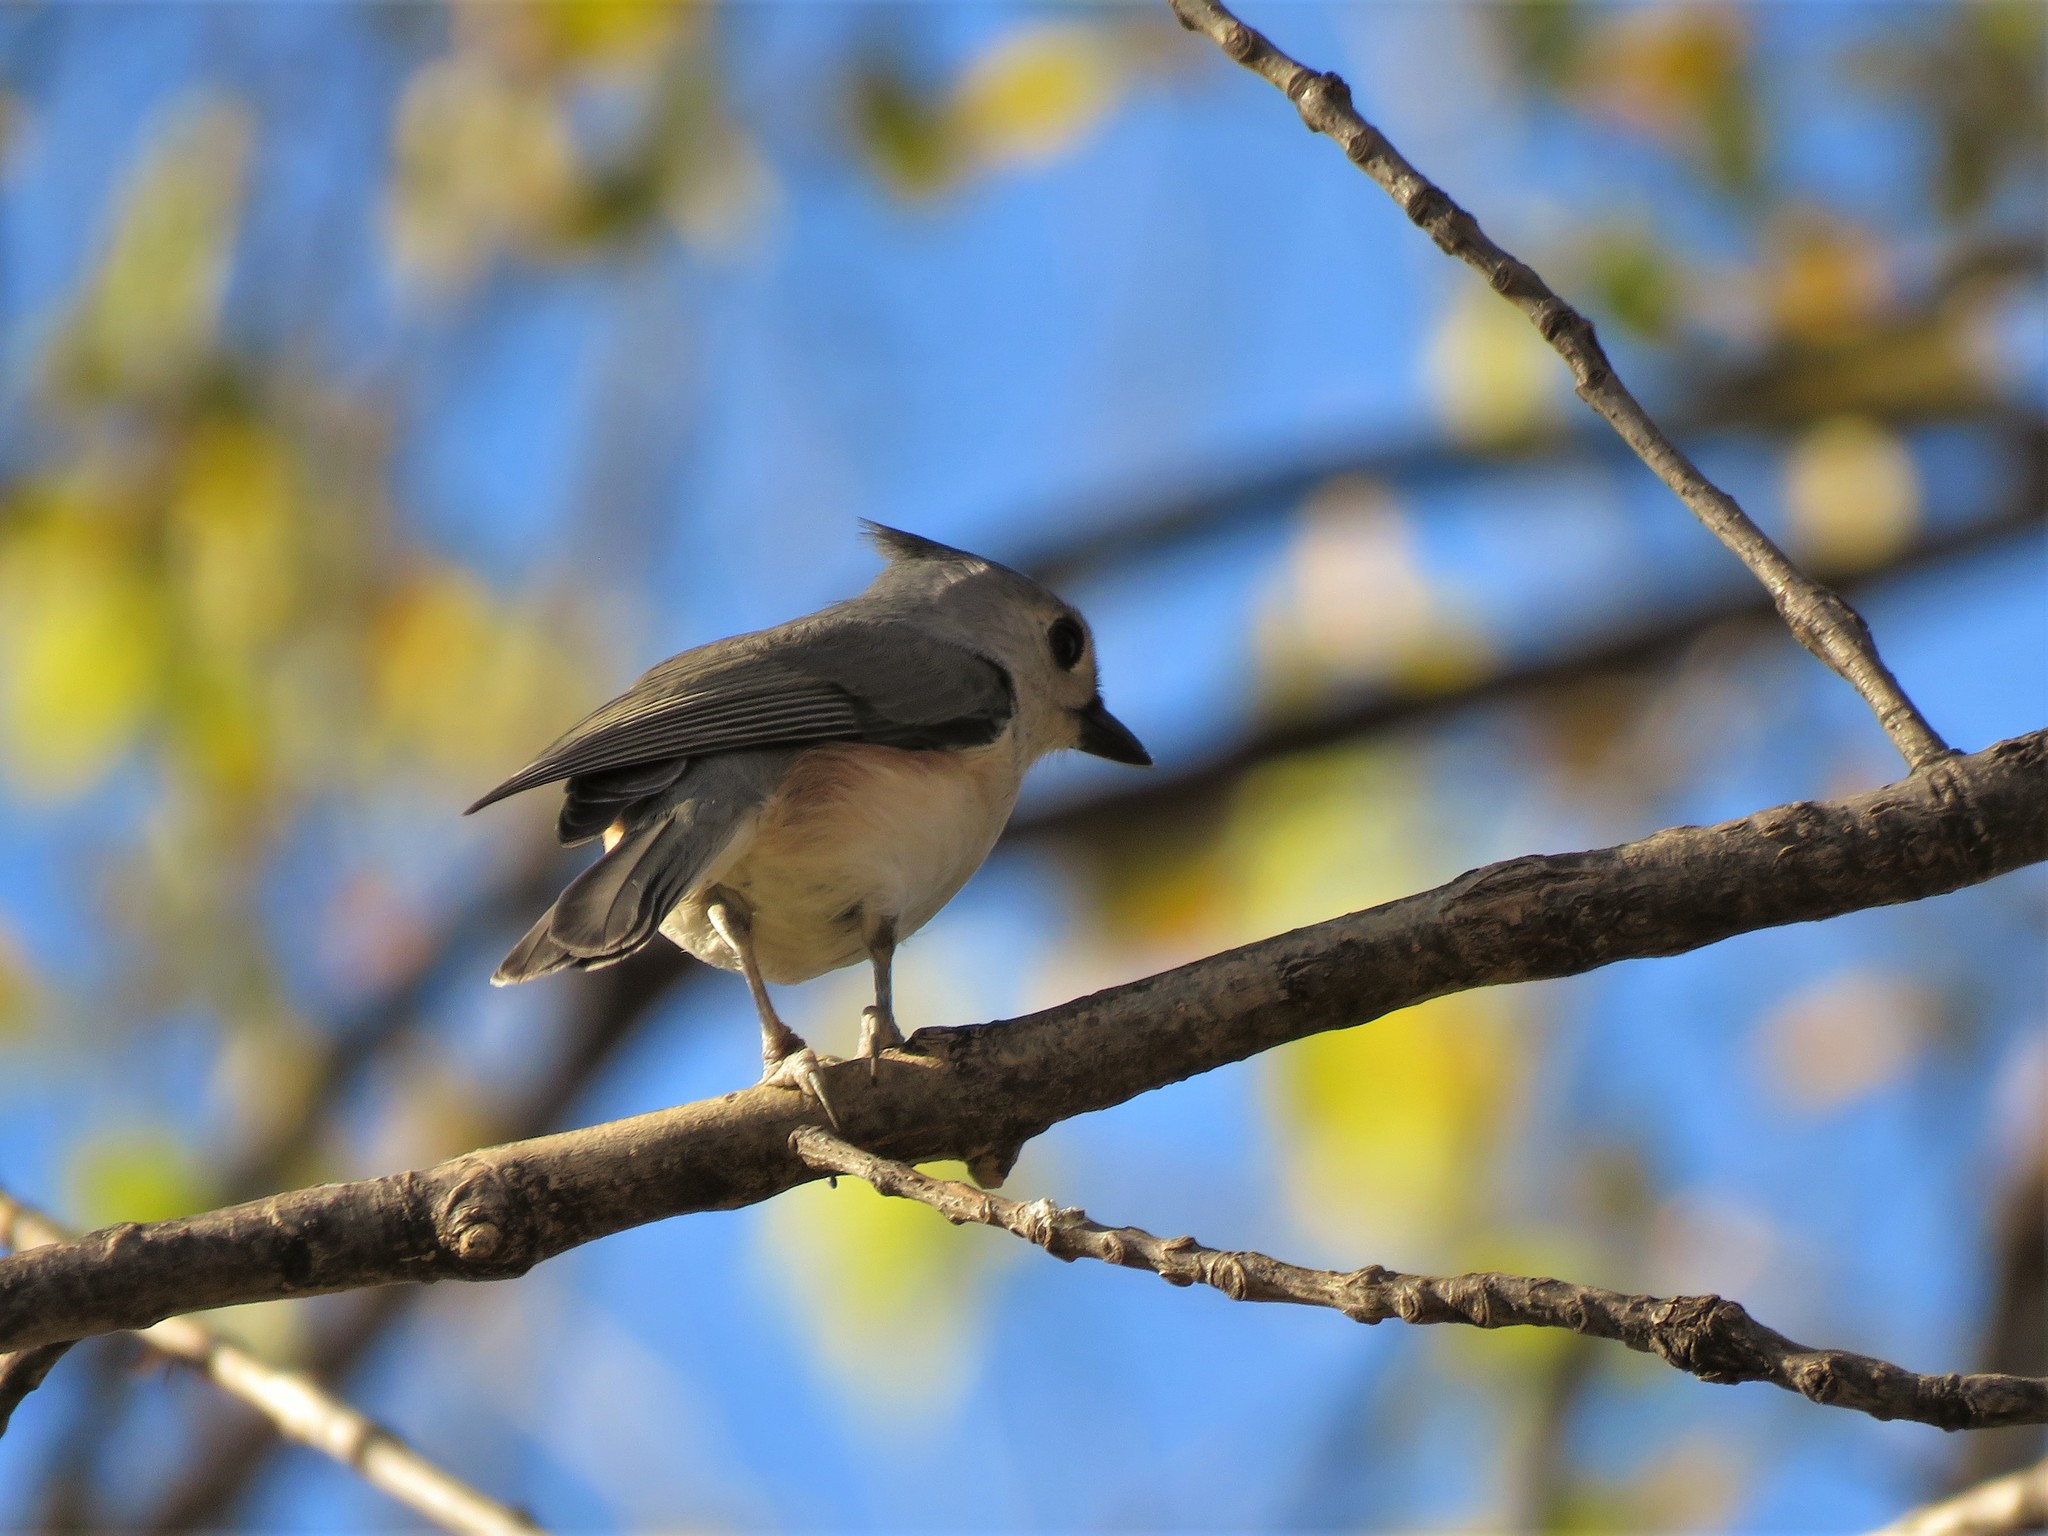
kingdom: Animalia
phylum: Chordata
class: Aves
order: Passeriformes
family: Paridae
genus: Baeolophus
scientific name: Baeolophus bicolor
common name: Tufted titmouse
